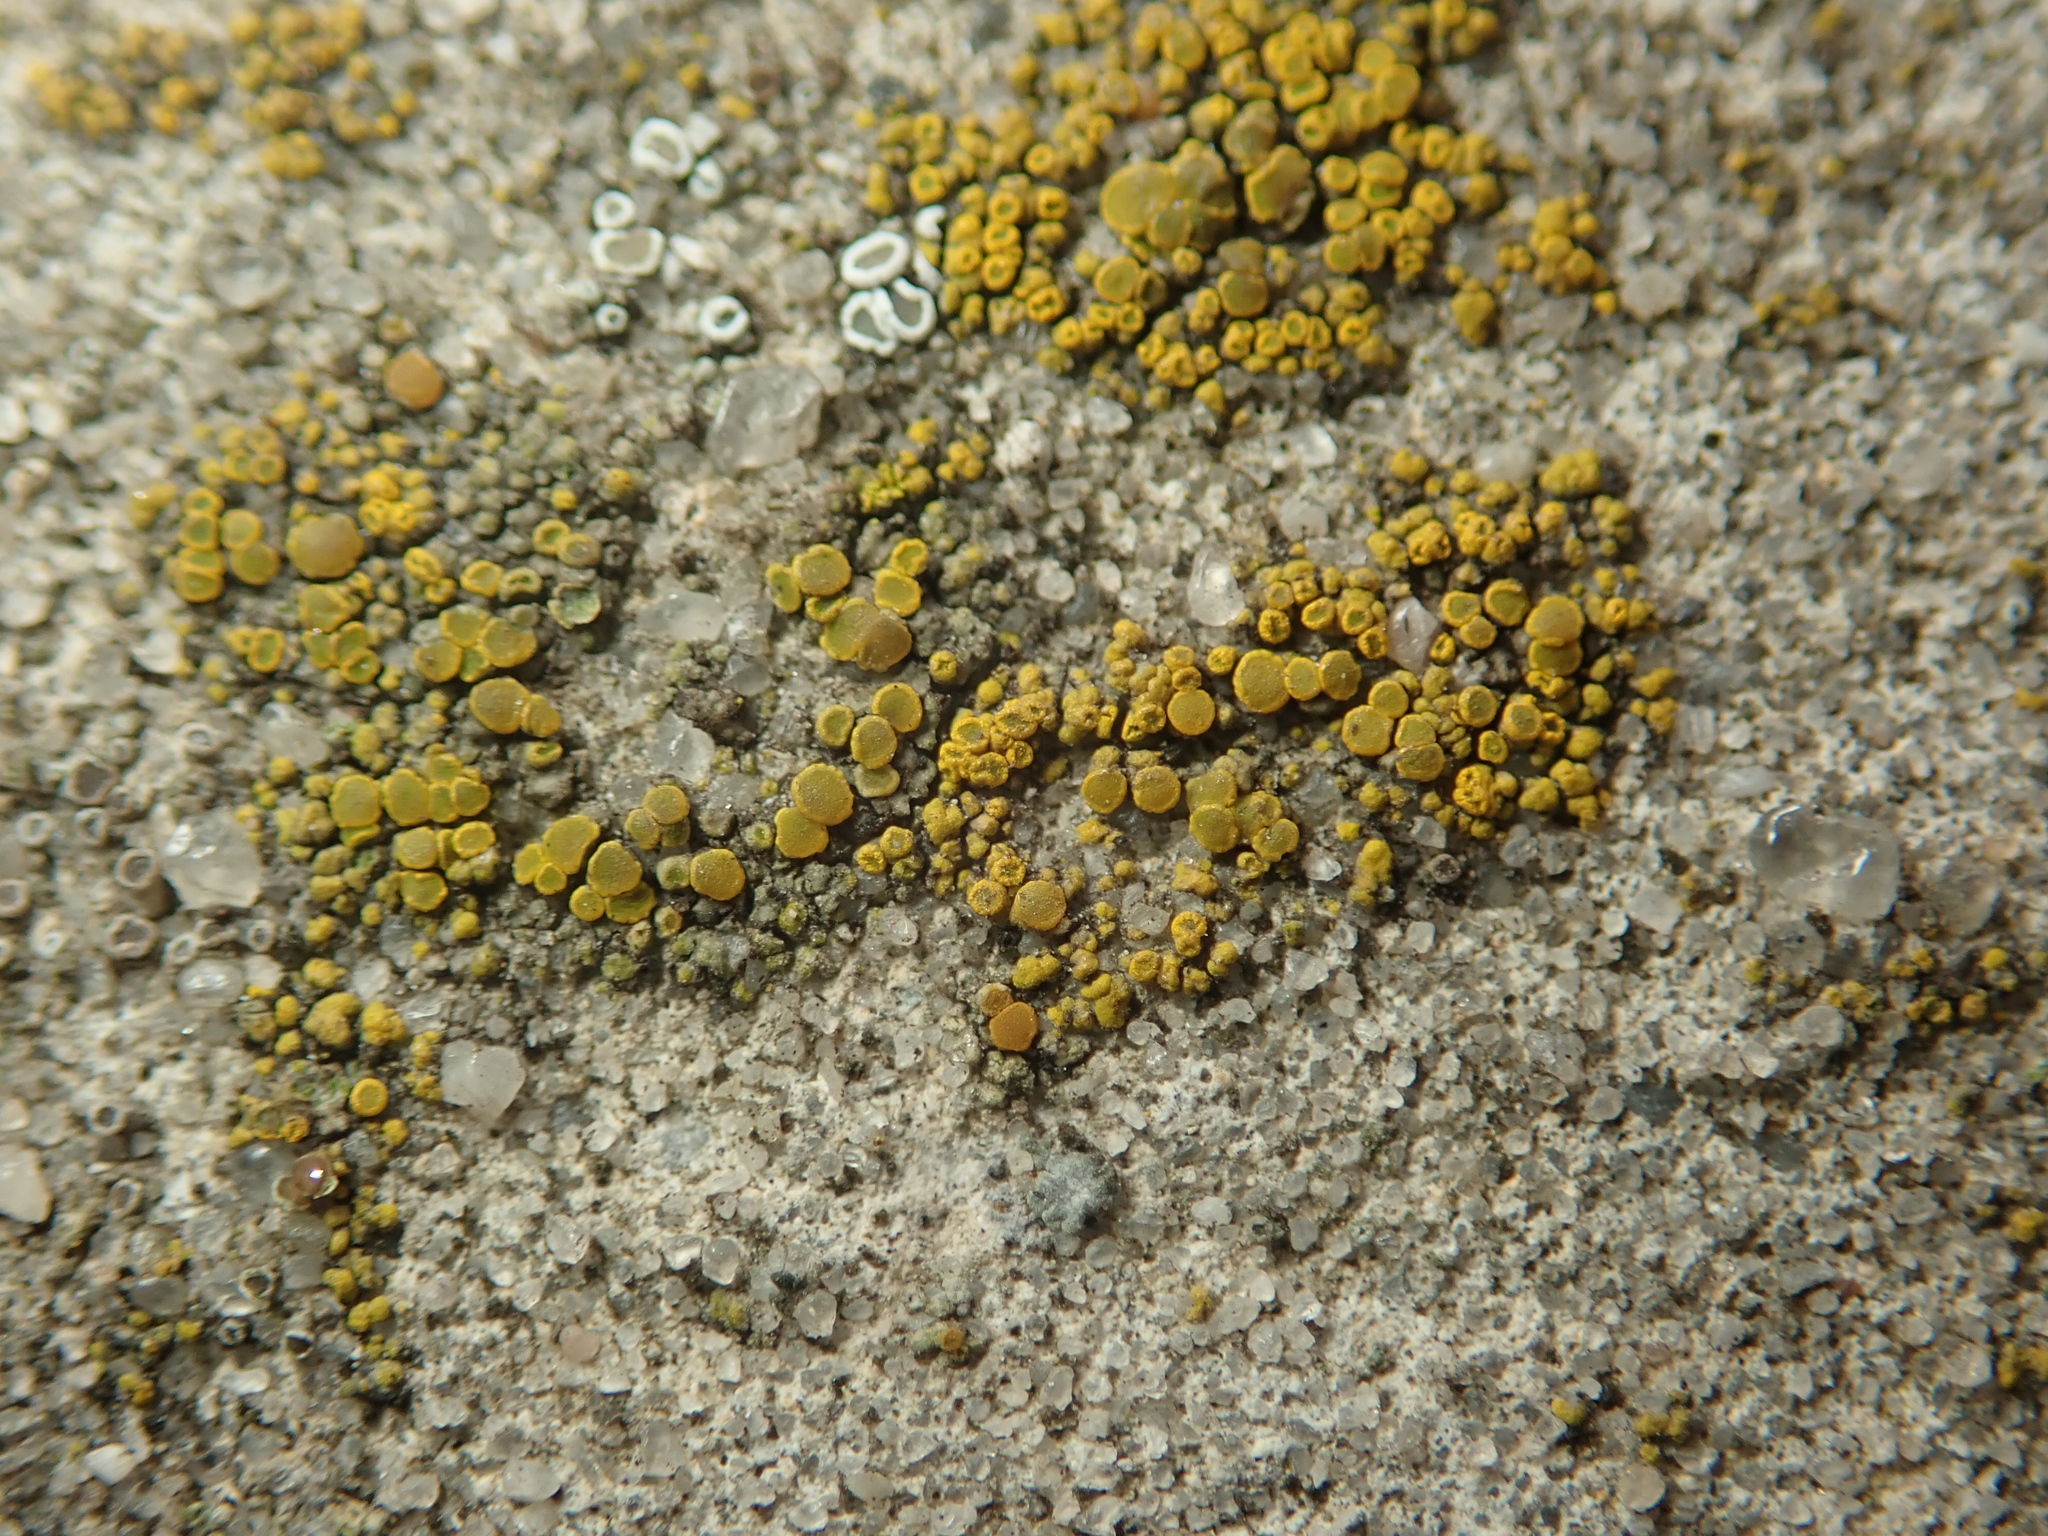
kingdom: Fungi
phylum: Ascomycota
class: Candelariomycetes
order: Candelariales
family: Candelariaceae
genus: Candelariella
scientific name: Candelariella vitellina
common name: Common goldspeck
